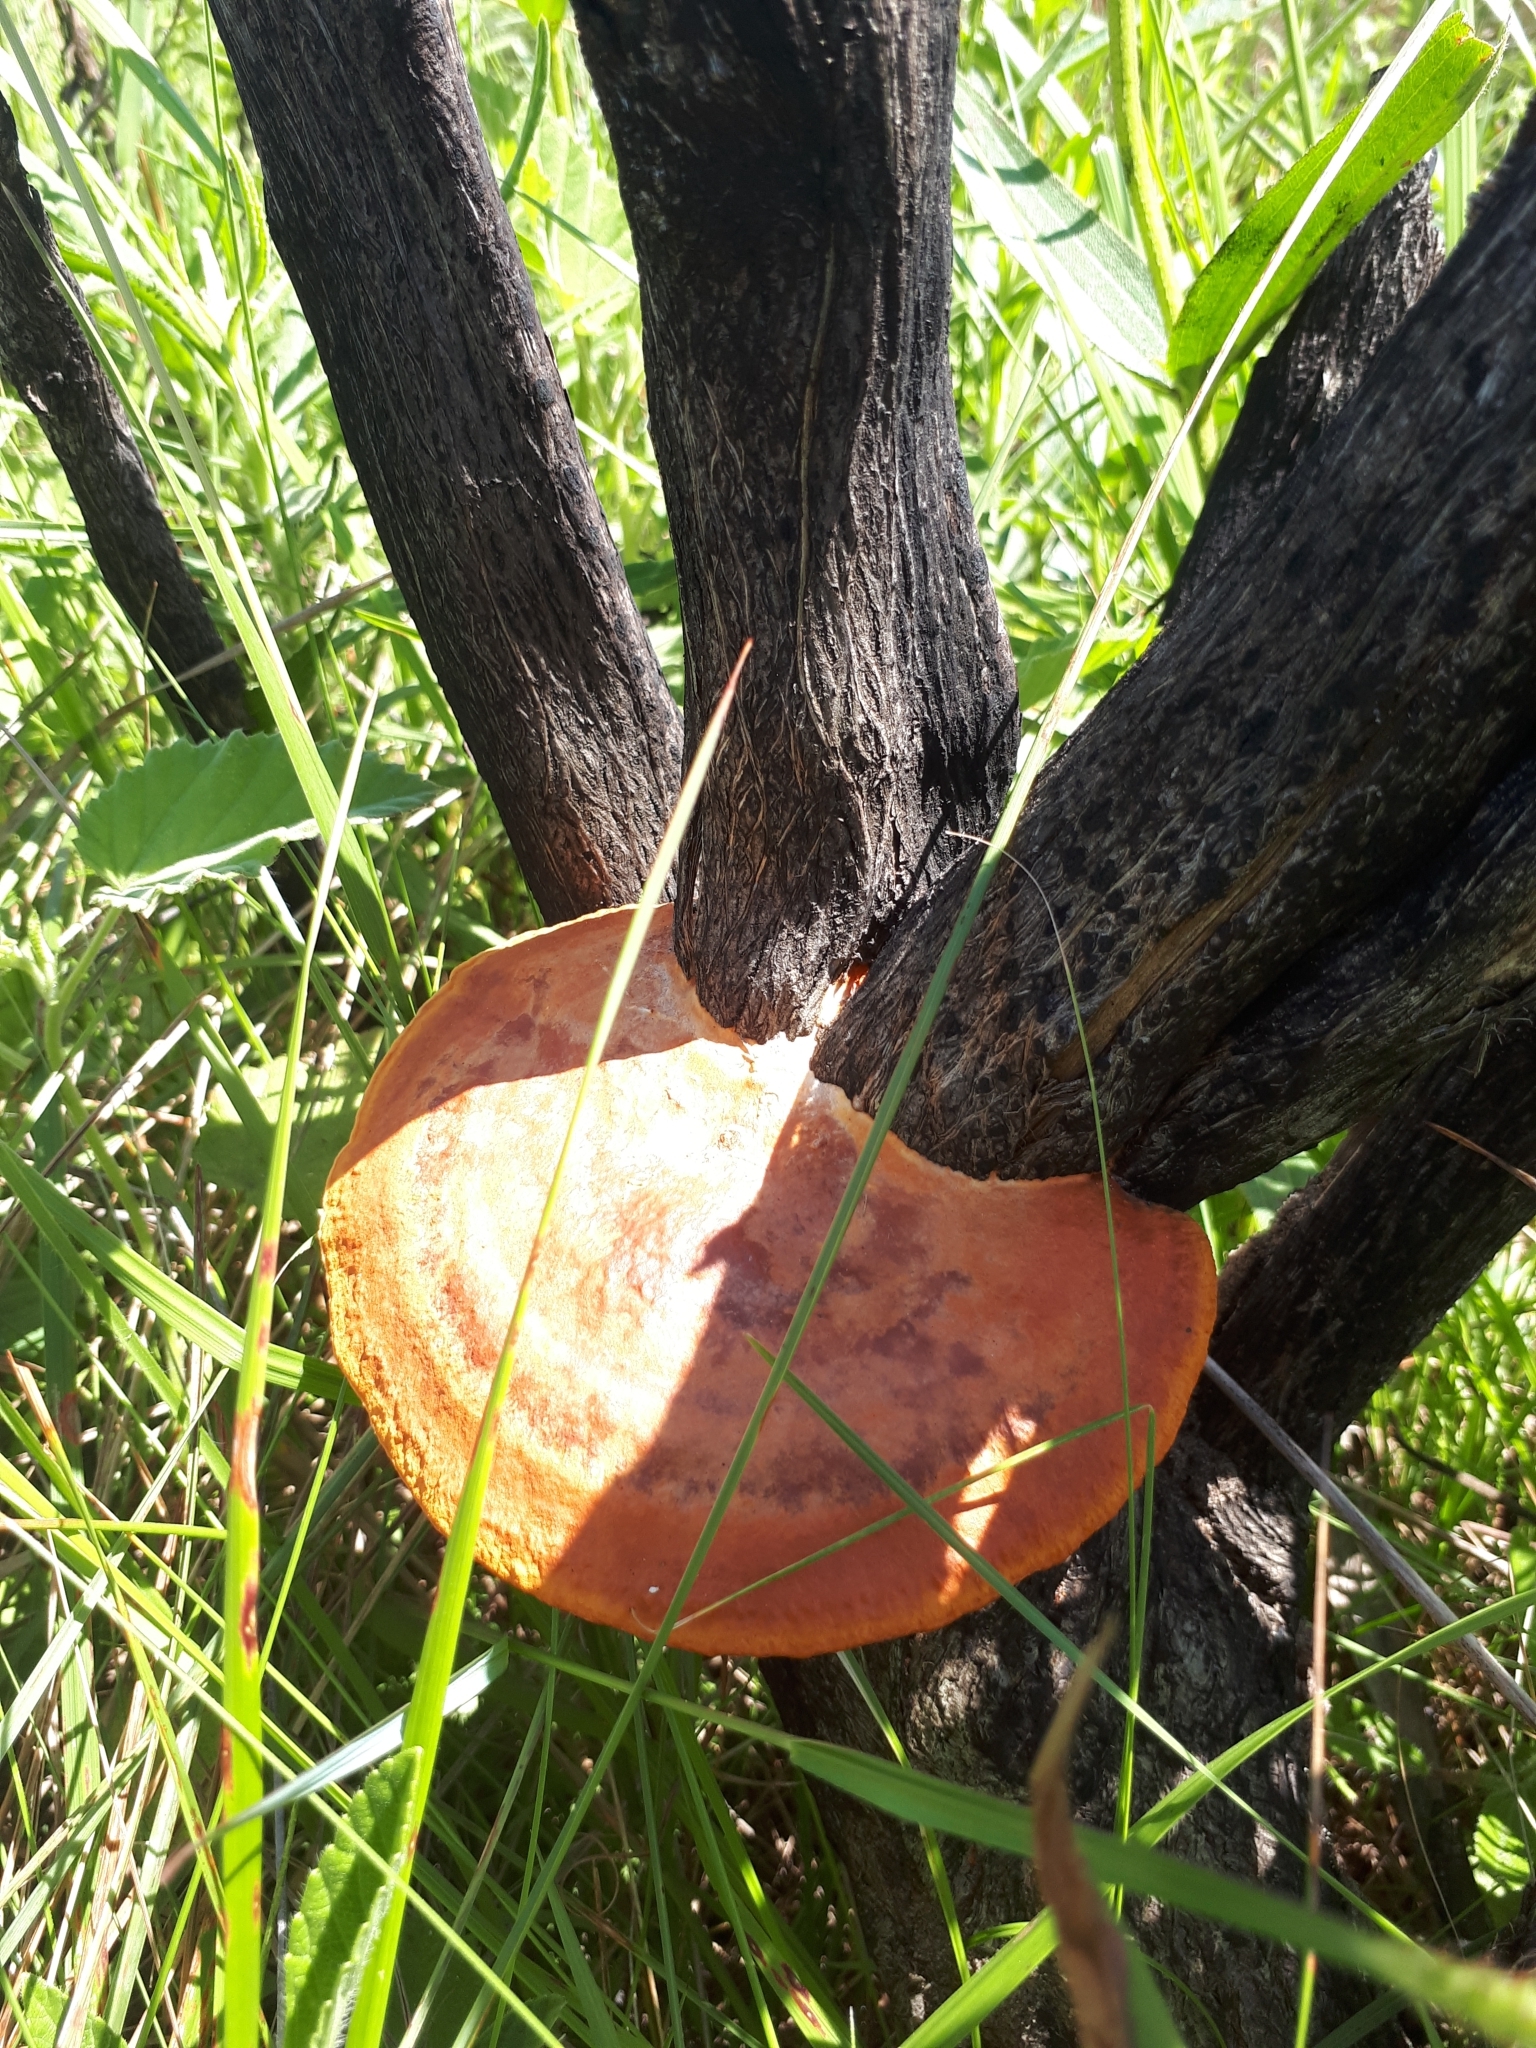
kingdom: Fungi
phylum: Basidiomycota
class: Agaricomycetes
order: Polyporales
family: Polyporaceae
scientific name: Polyporaceae
